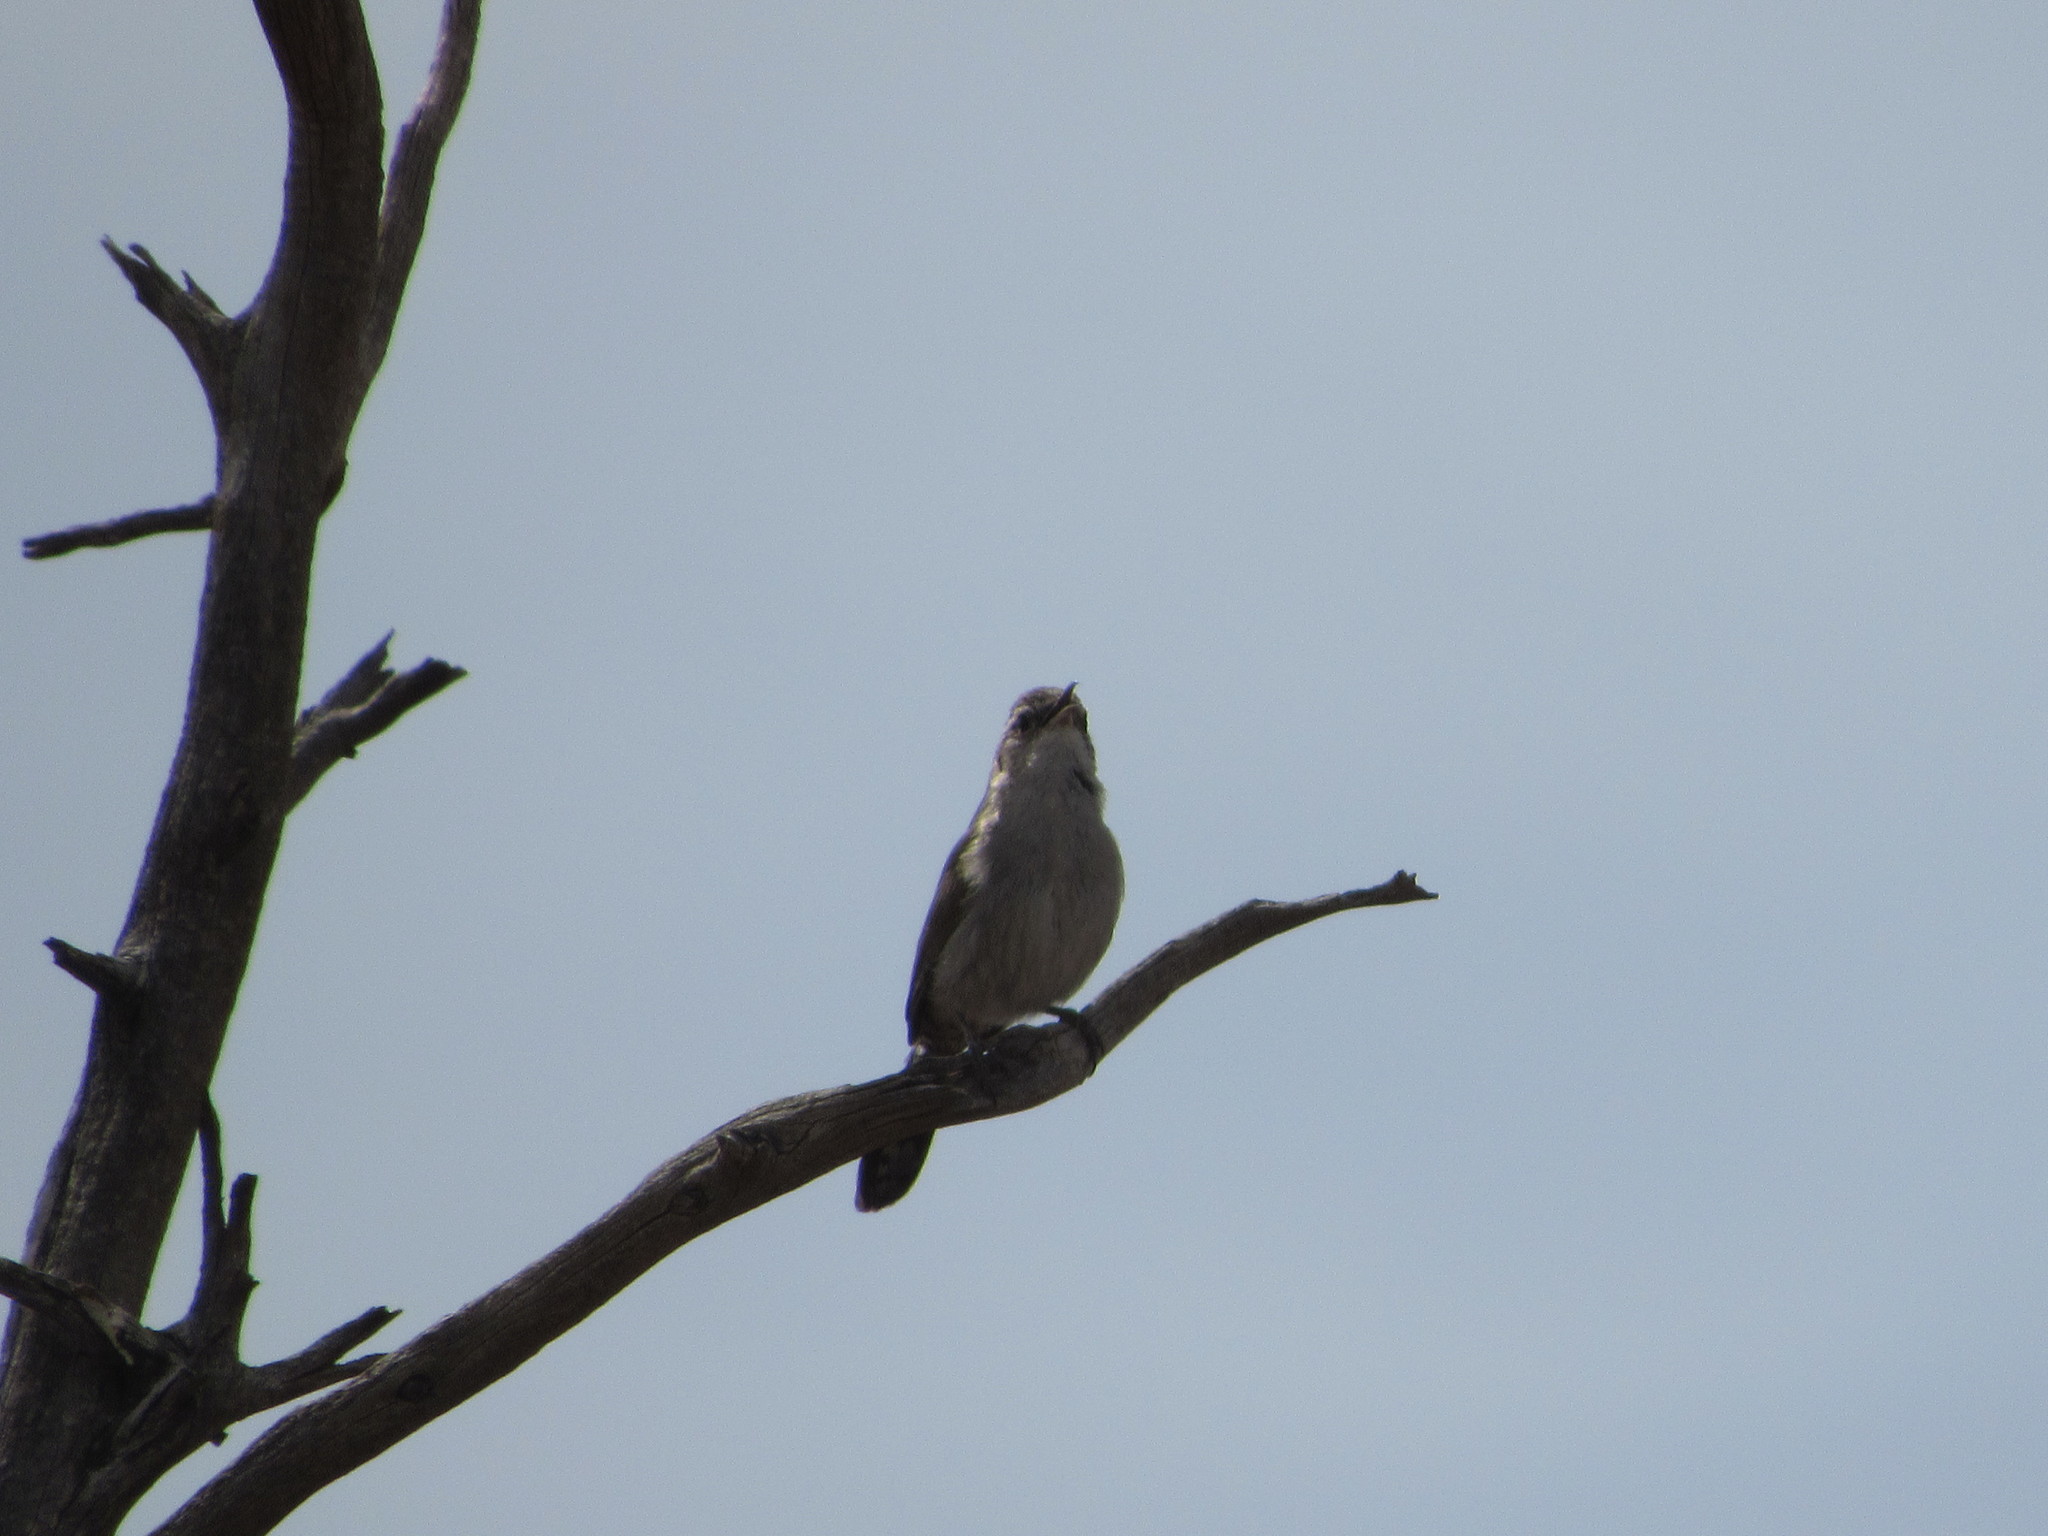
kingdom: Animalia
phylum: Chordata
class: Aves
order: Passeriformes
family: Troglodytidae
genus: Thryomanes
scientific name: Thryomanes bewickii
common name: Bewick's wren
